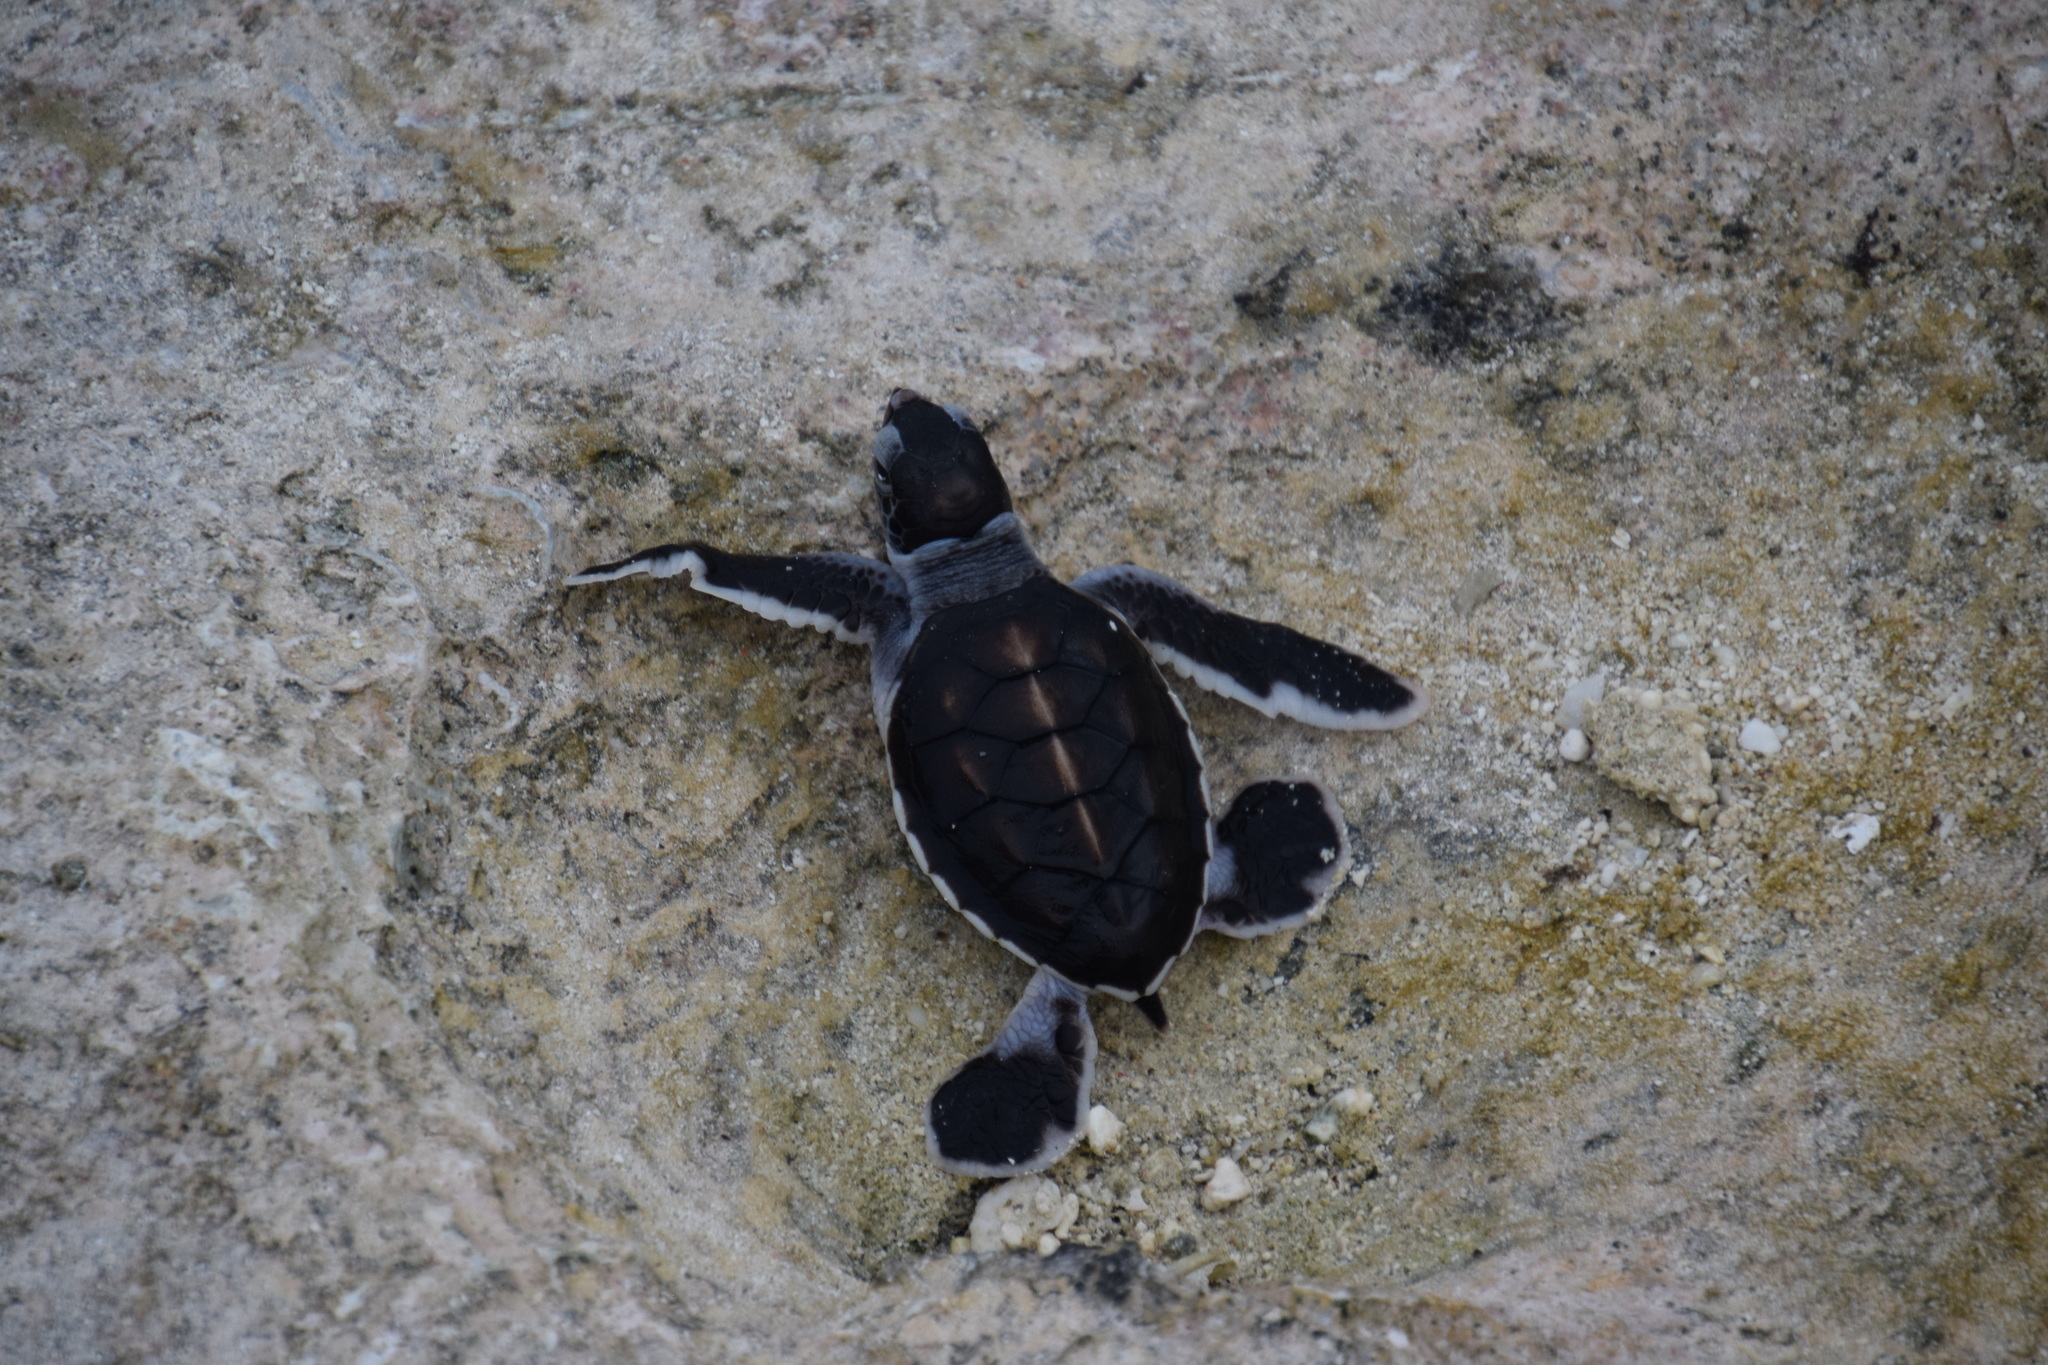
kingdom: Animalia
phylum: Chordata
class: Testudines
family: Cheloniidae
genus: Chelonia
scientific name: Chelonia mydas
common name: Green turtle
